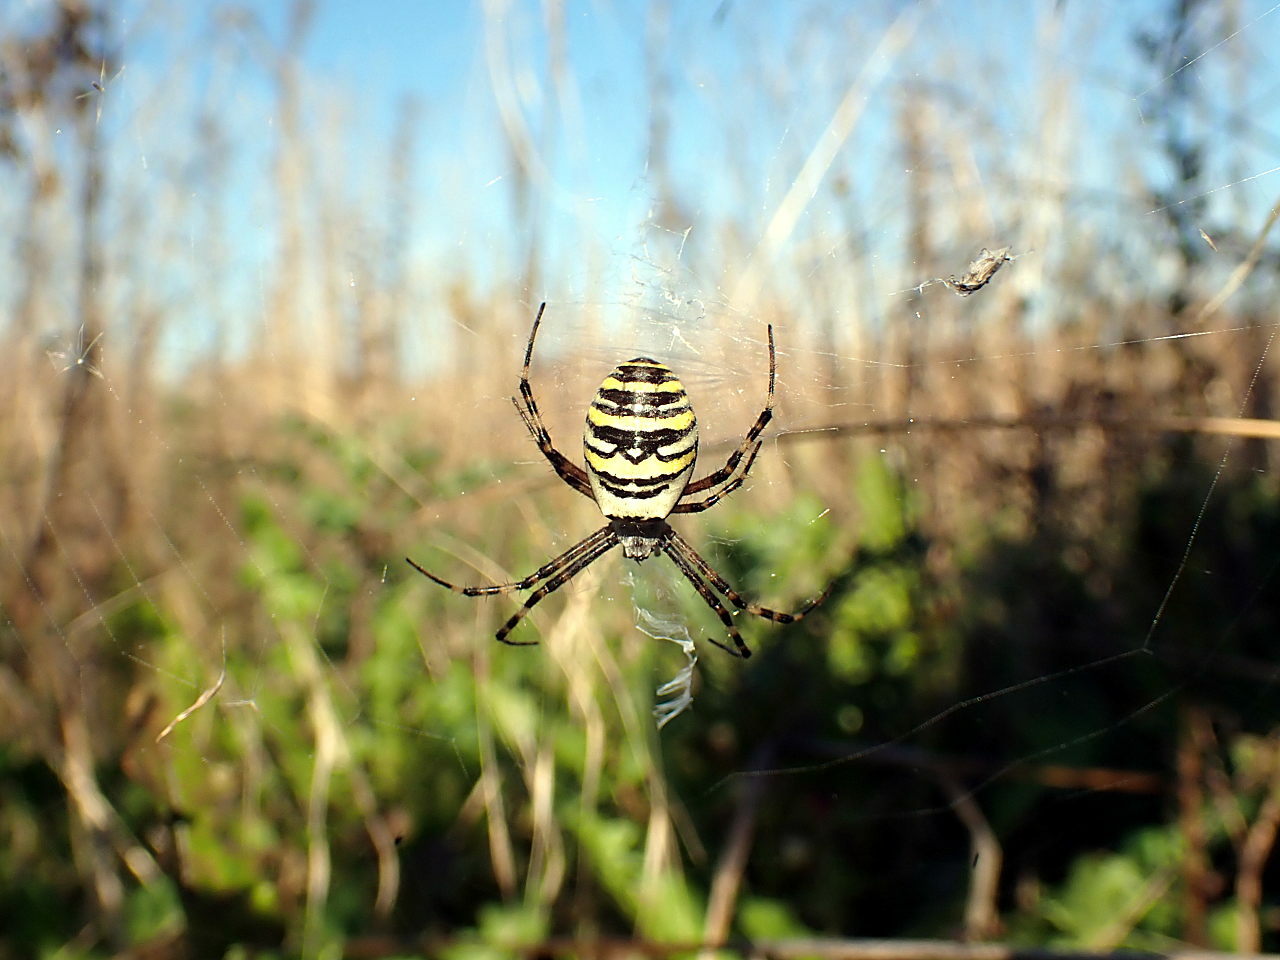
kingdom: Animalia
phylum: Arthropoda
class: Arachnida
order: Araneae
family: Araneidae
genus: Argiope
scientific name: Argiope bruennichi
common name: Wasp spider
